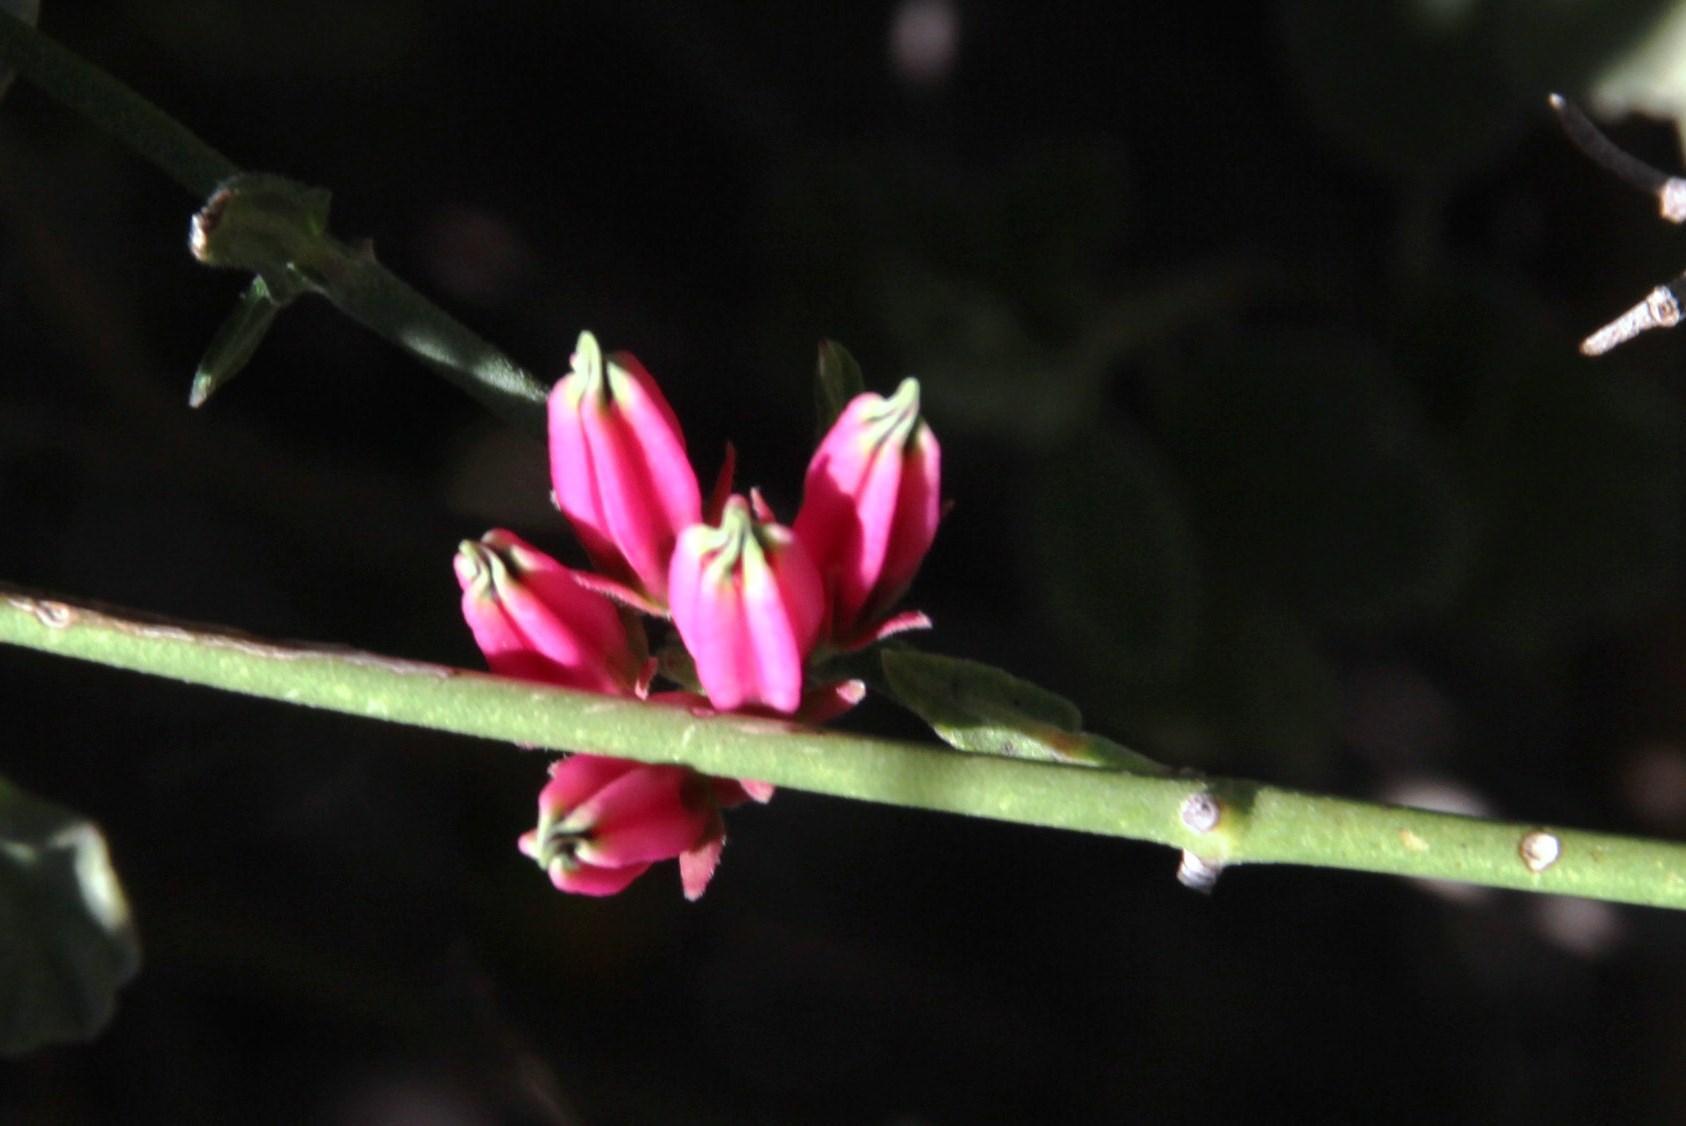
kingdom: Plantae
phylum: Tracheophyta
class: Magnoliopsida
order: Gentianales
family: Apocynaceae
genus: Microloma
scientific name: Microloma sagittatum
